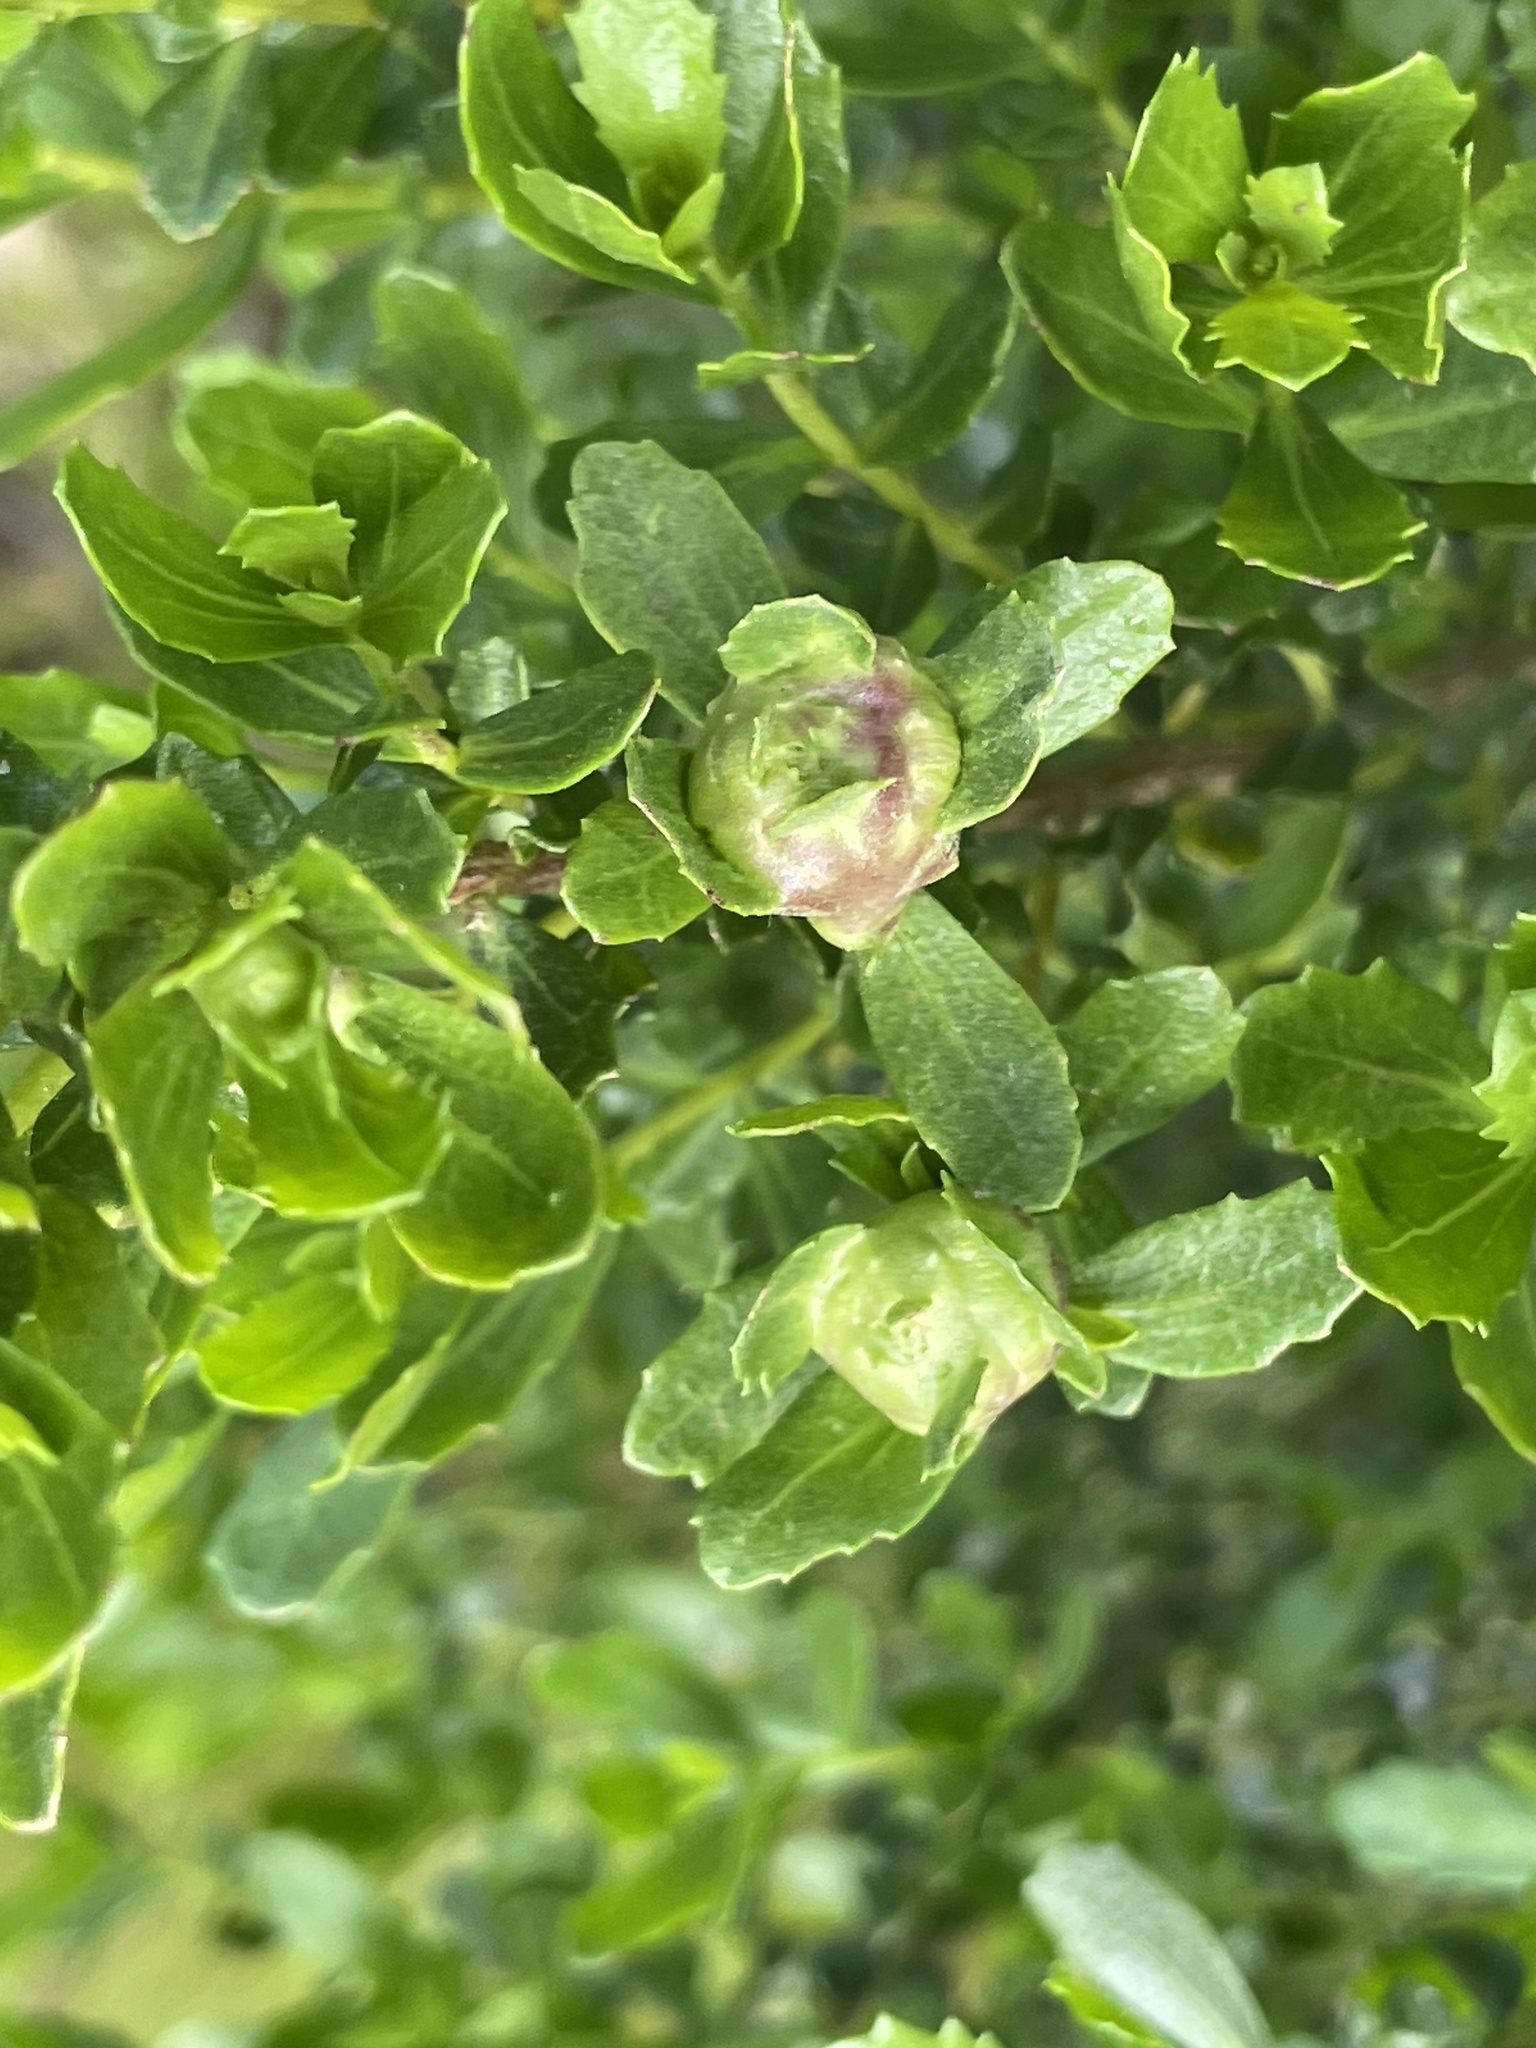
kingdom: Animalia
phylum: Arthropoda
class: Insecta
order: Diptera
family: Cecidomyiidae
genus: Rhopalomyia
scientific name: Rhopalomyia californica
